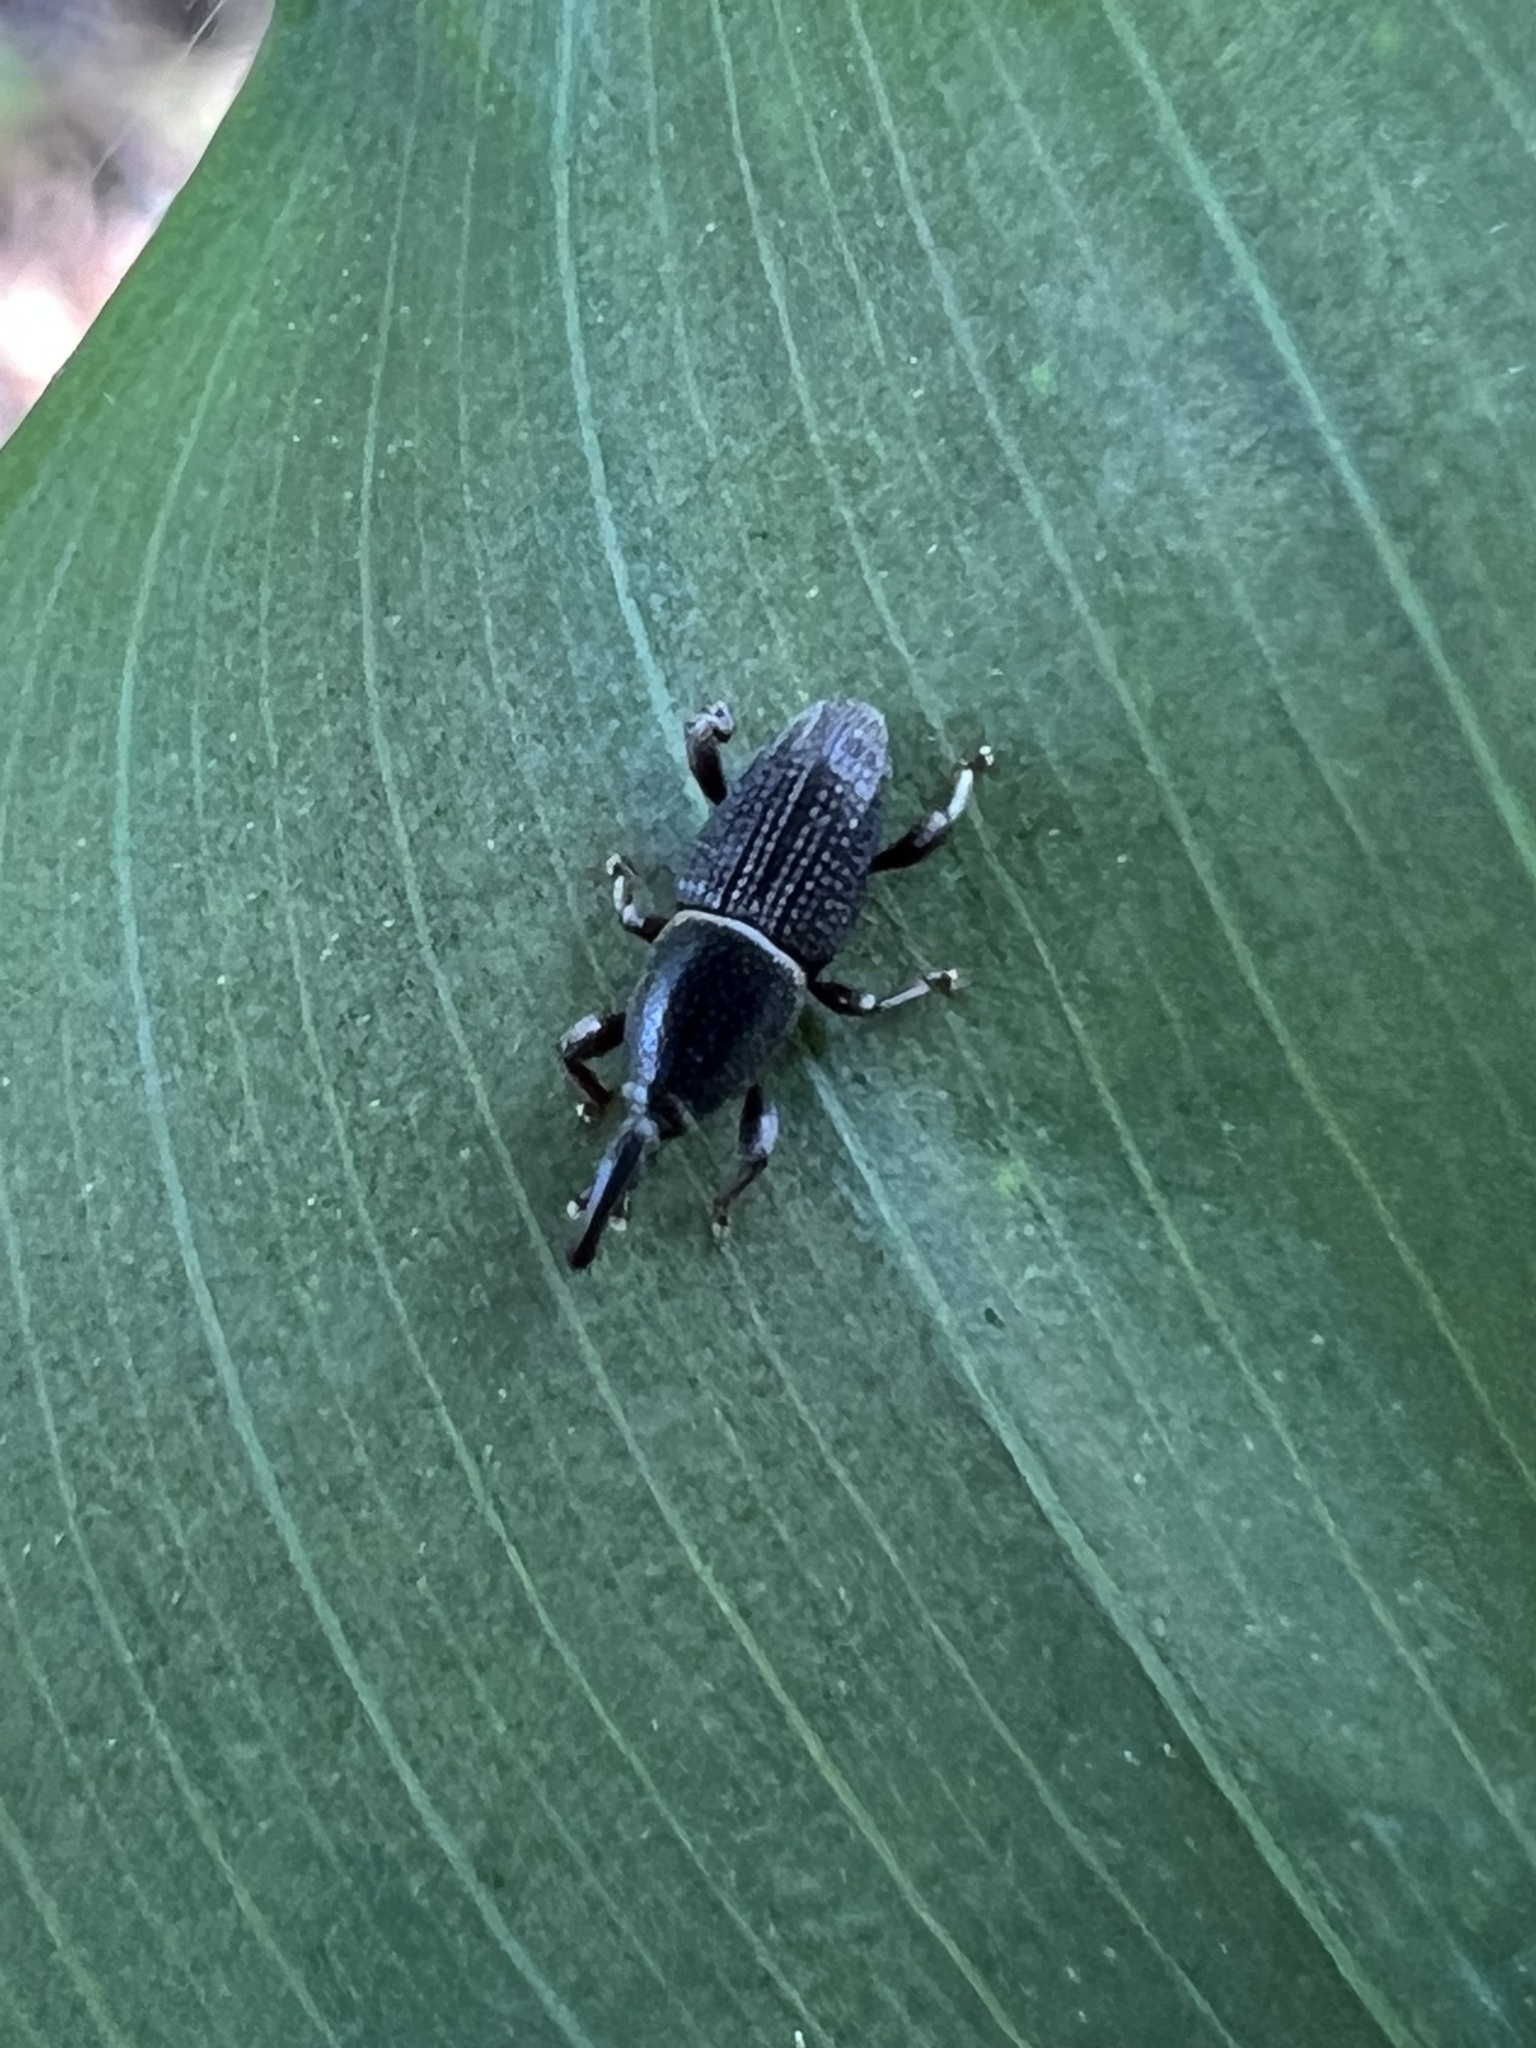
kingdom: Animalia
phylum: Arthropoda
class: Insecta
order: Coleoptera
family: Dryophthoridae
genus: Polytus
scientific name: Polytus mellerborgi
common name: Weevil
